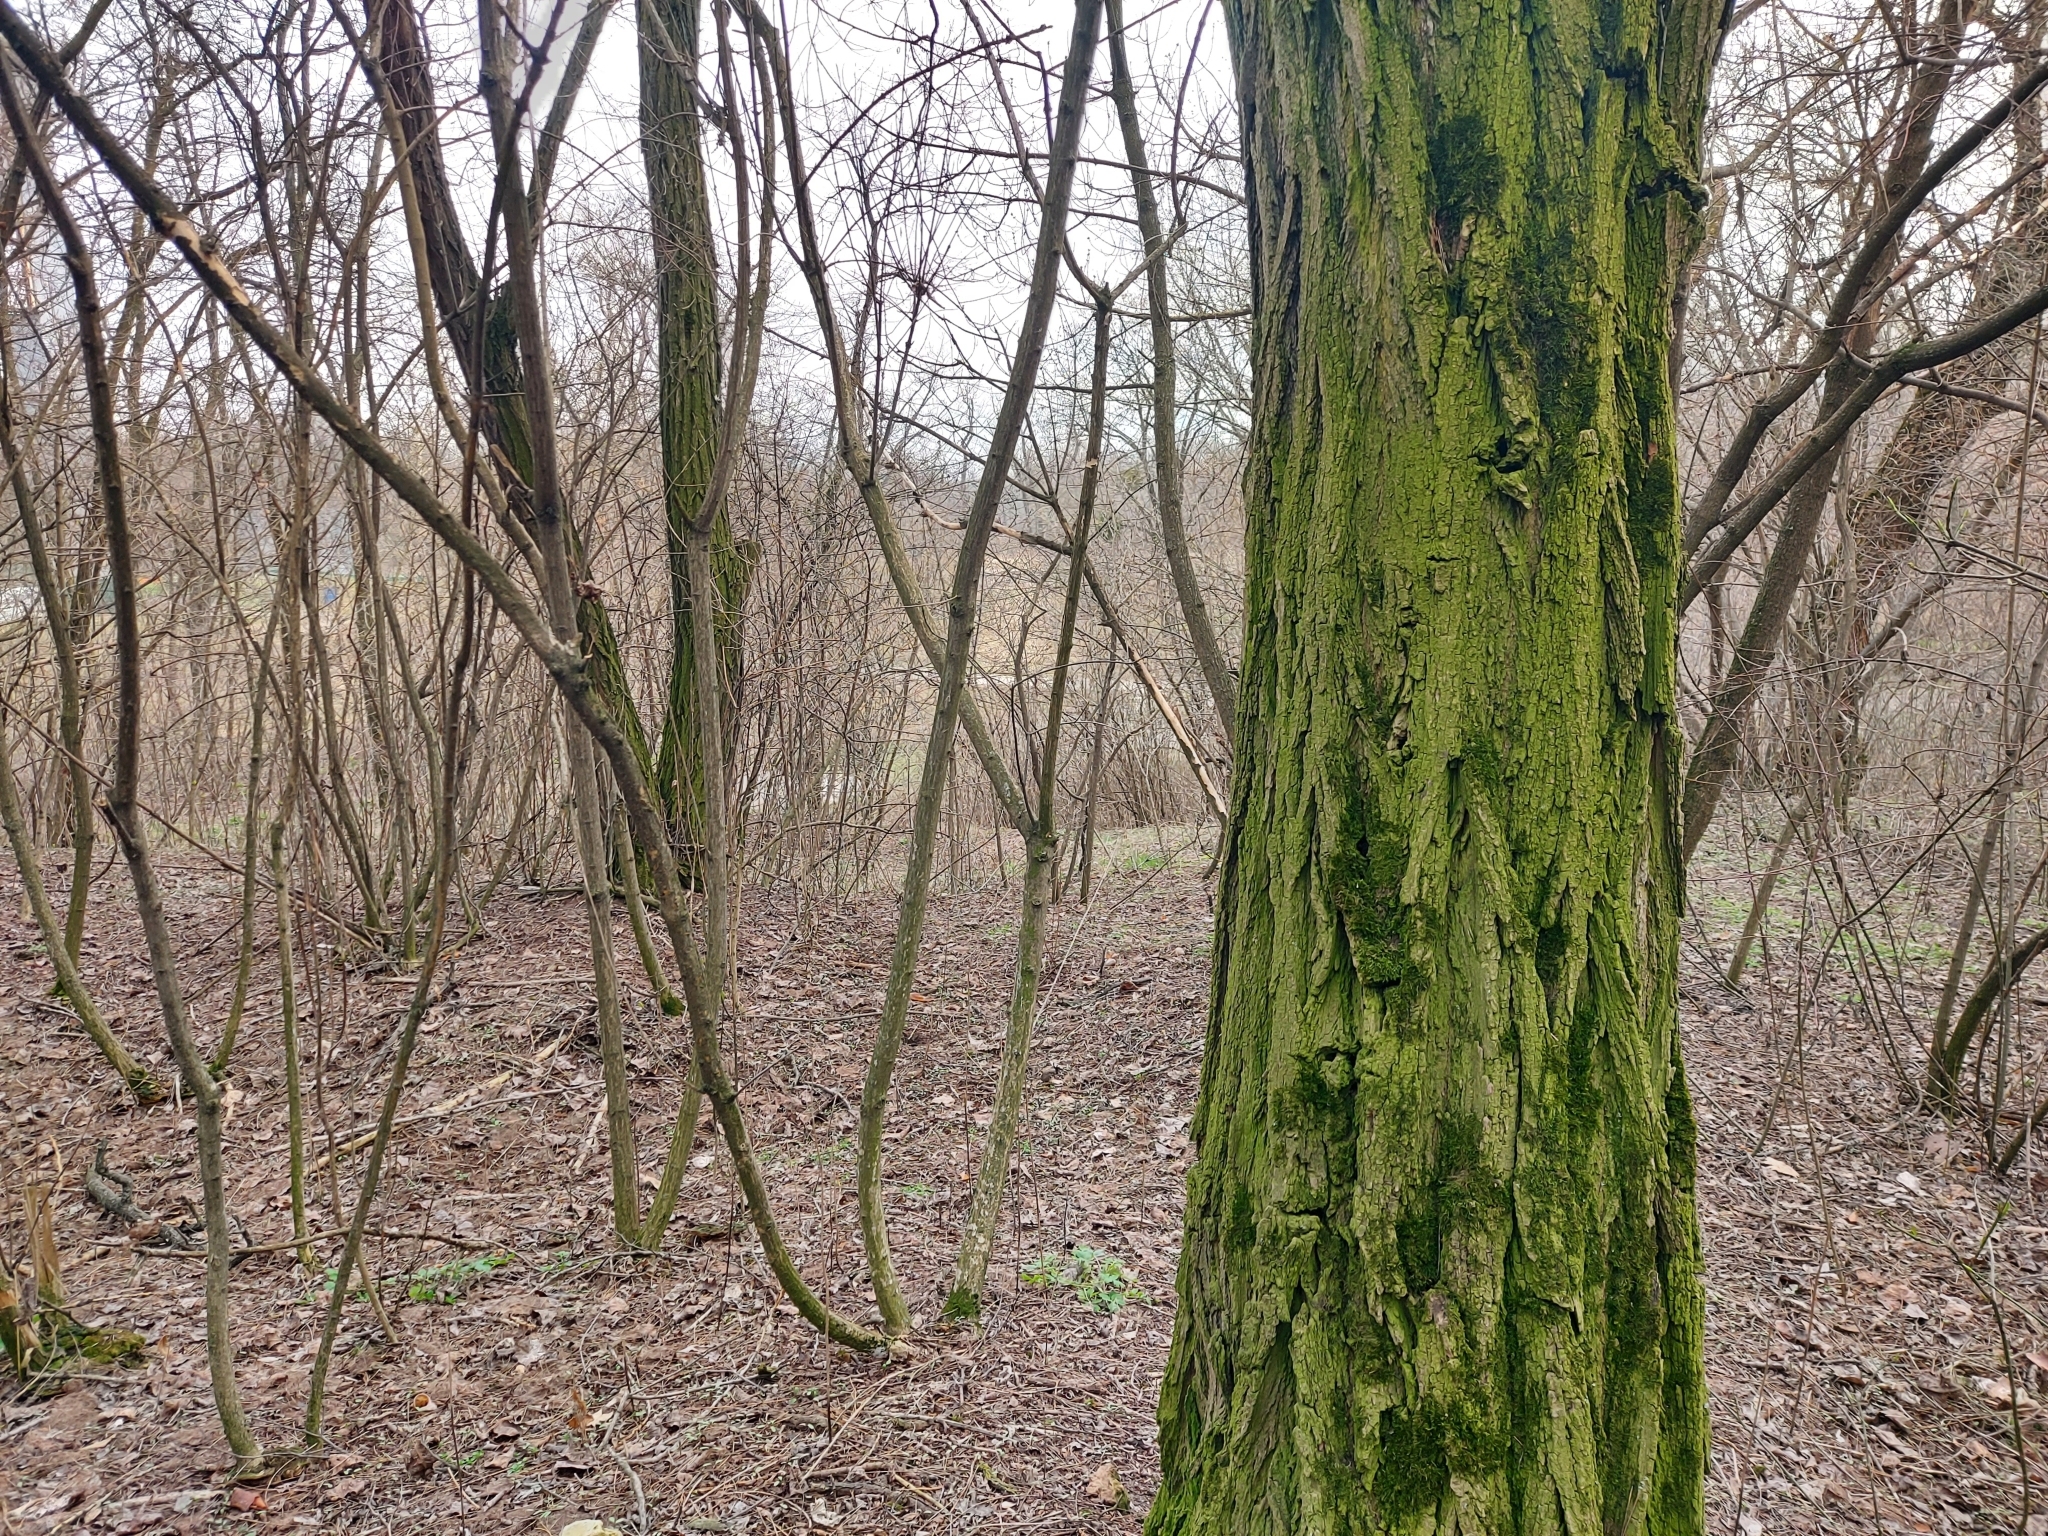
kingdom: Plantae
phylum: Tracheophyta
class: Magnoliopsida
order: Fabales
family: Fabaceae
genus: Robinia
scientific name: Robinia pseudoacacia
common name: Black locust
